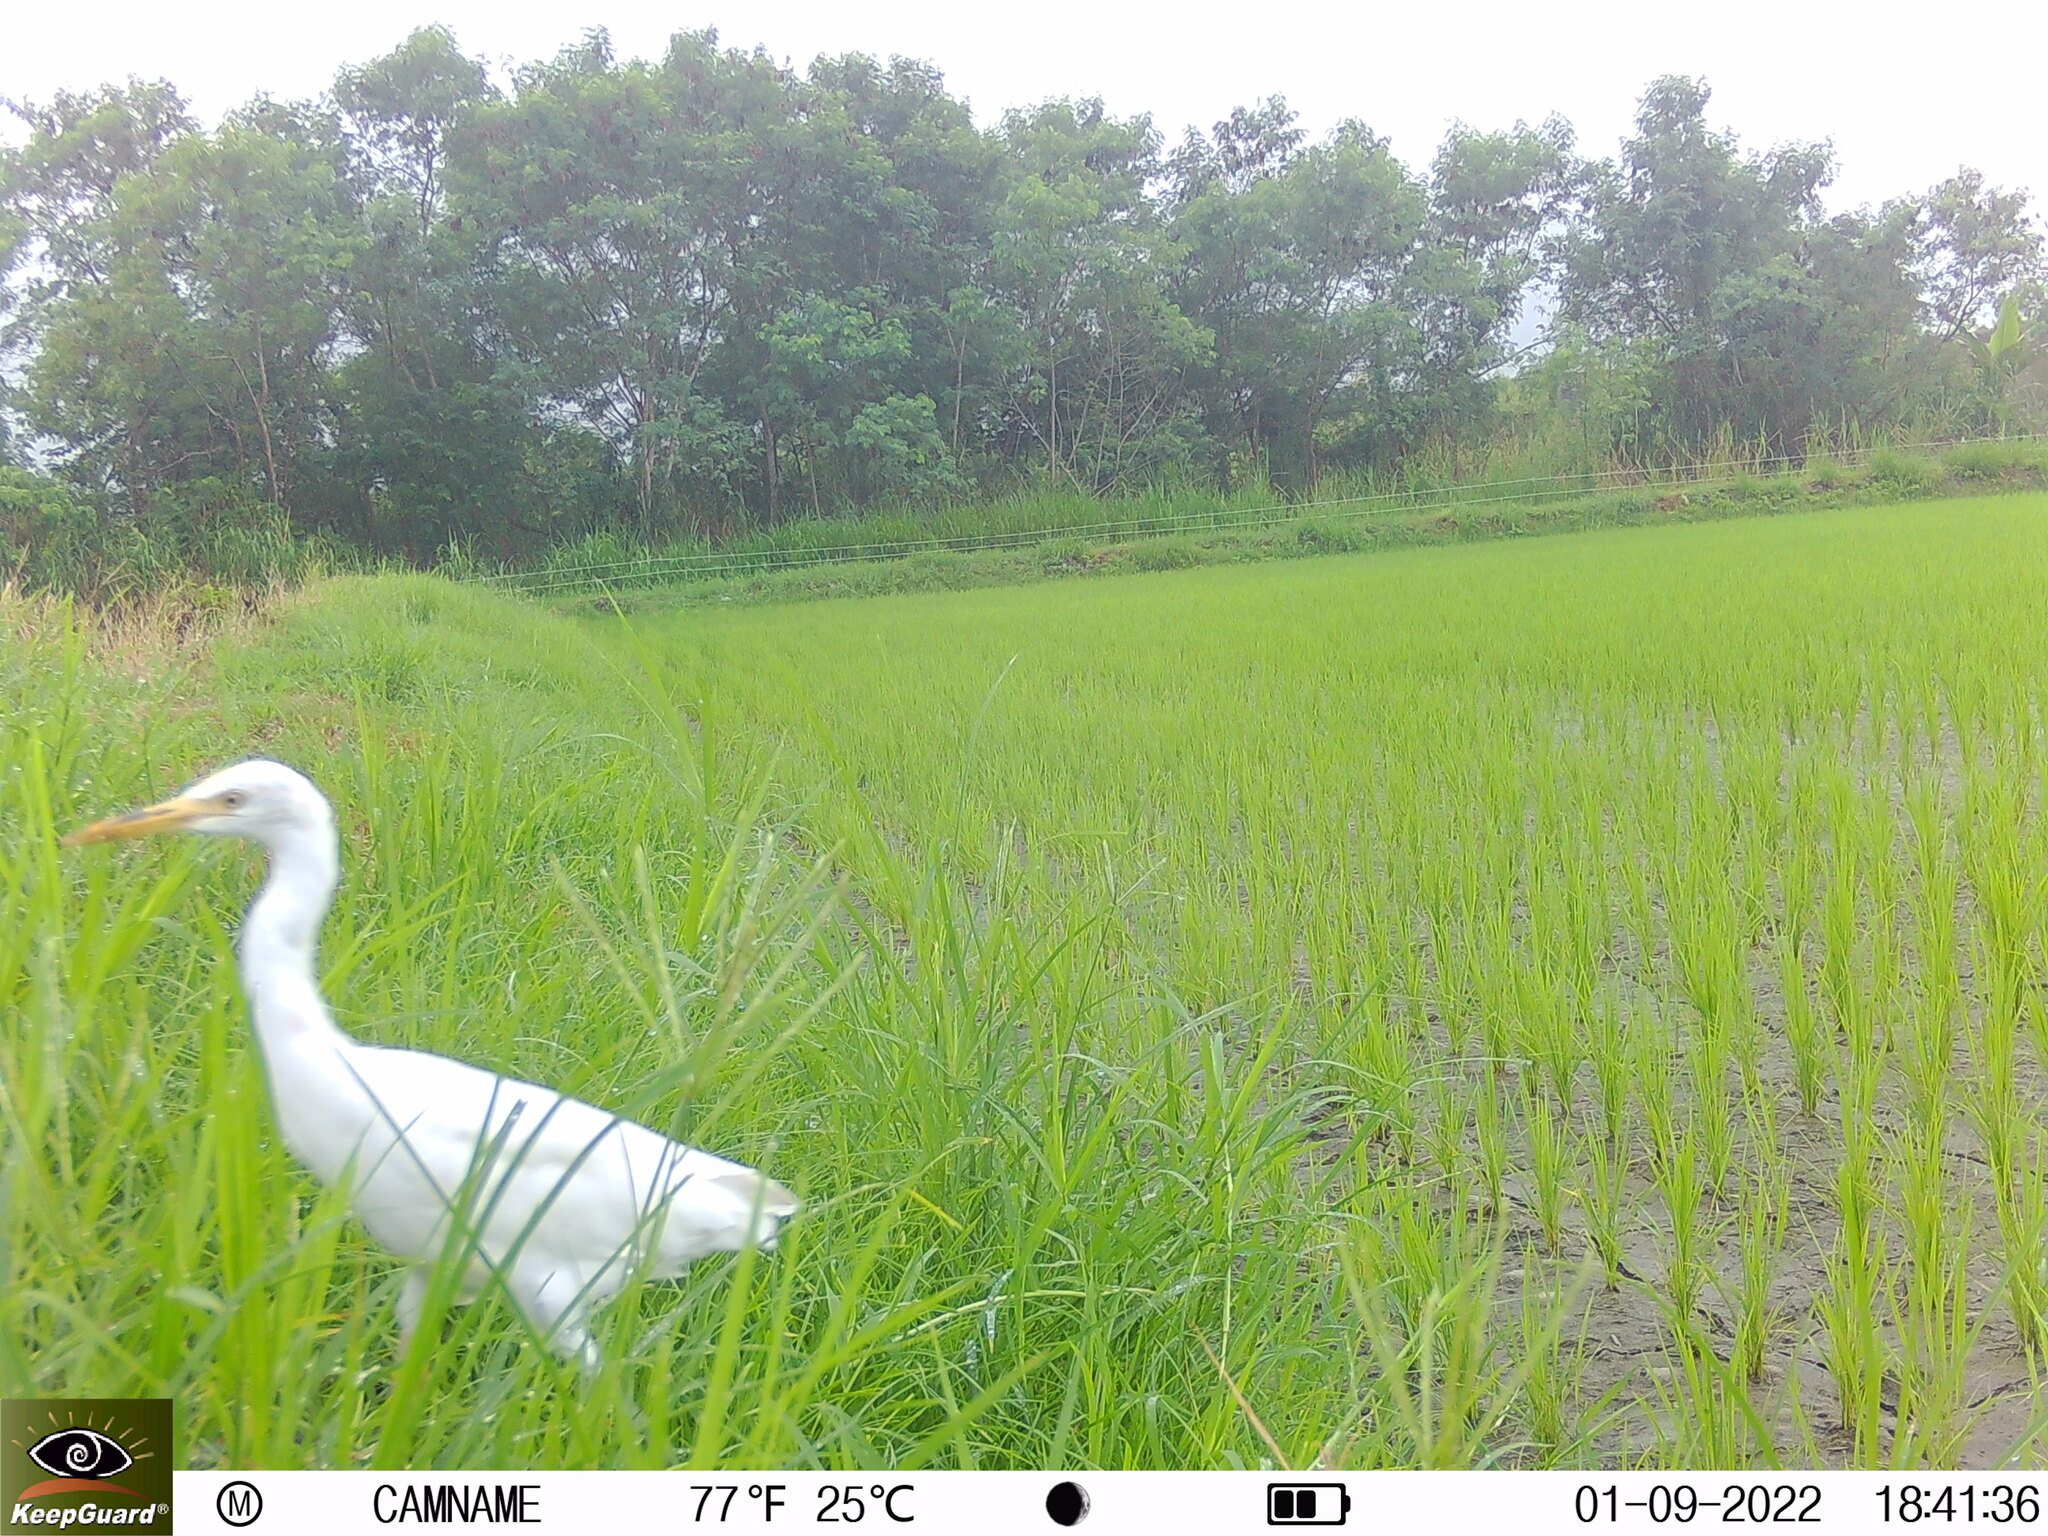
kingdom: Animalia
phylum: Chordata
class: Aves
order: Pelecaniformes
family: Ardeidae
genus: Bubulcus
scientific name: Bubulcus coromandus
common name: Eastern cattle egret
